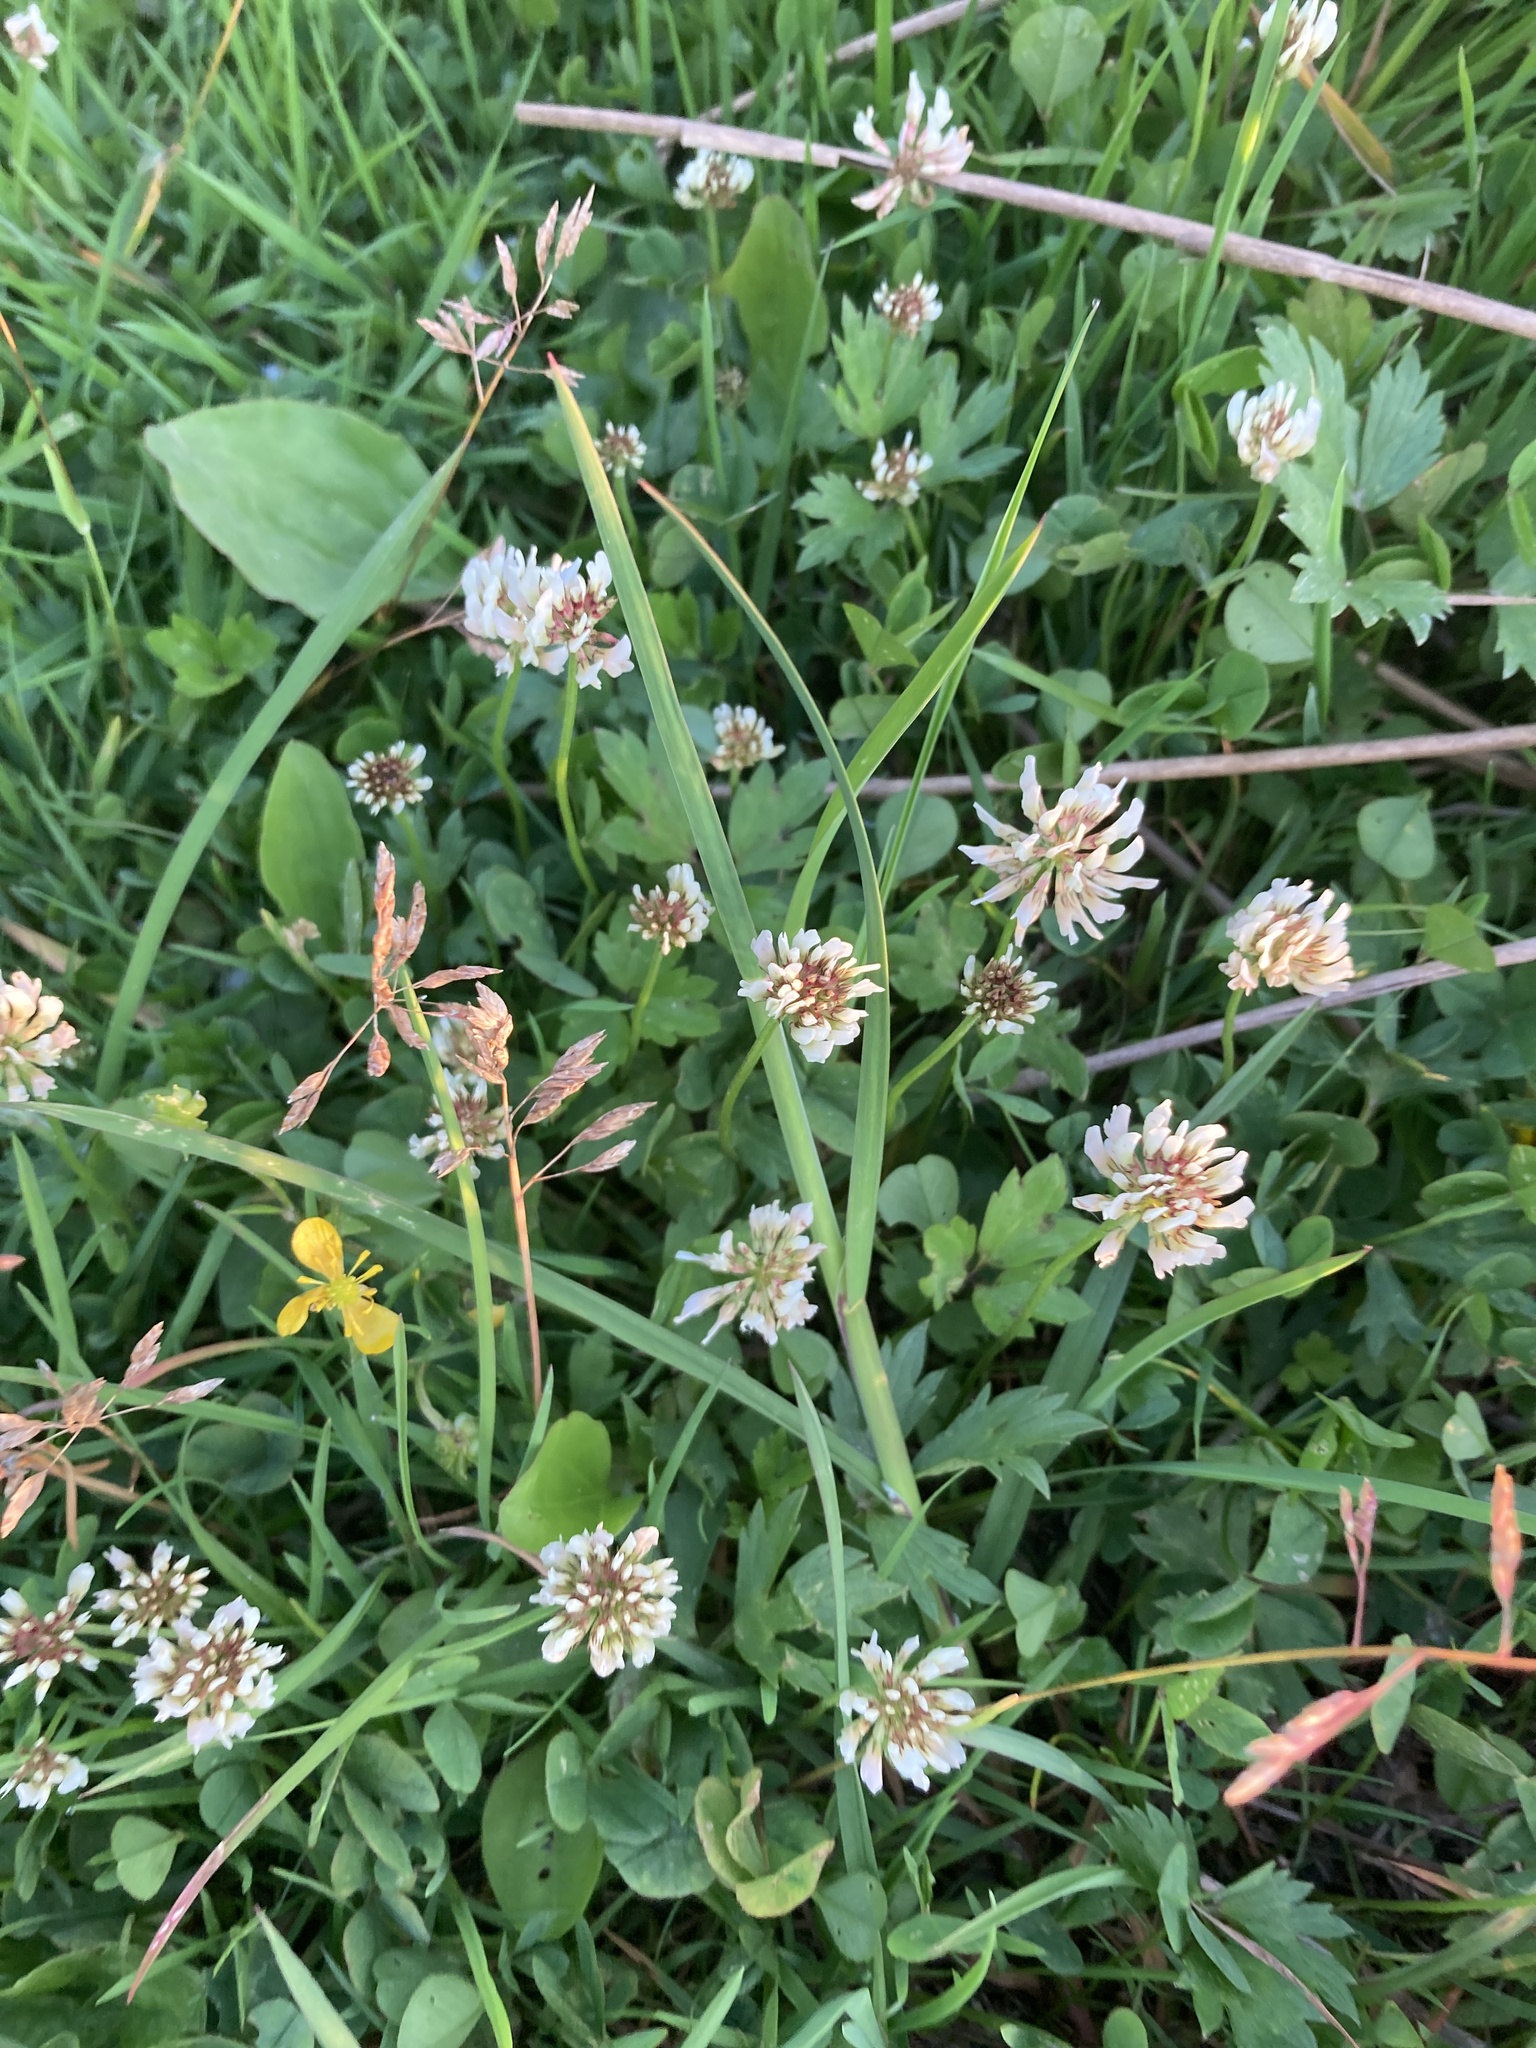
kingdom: Plantae
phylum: Tracheophyta
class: Magnoliopsida
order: Fabales
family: Fabaceae
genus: Trifolium
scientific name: Trifolium repens
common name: White clover
